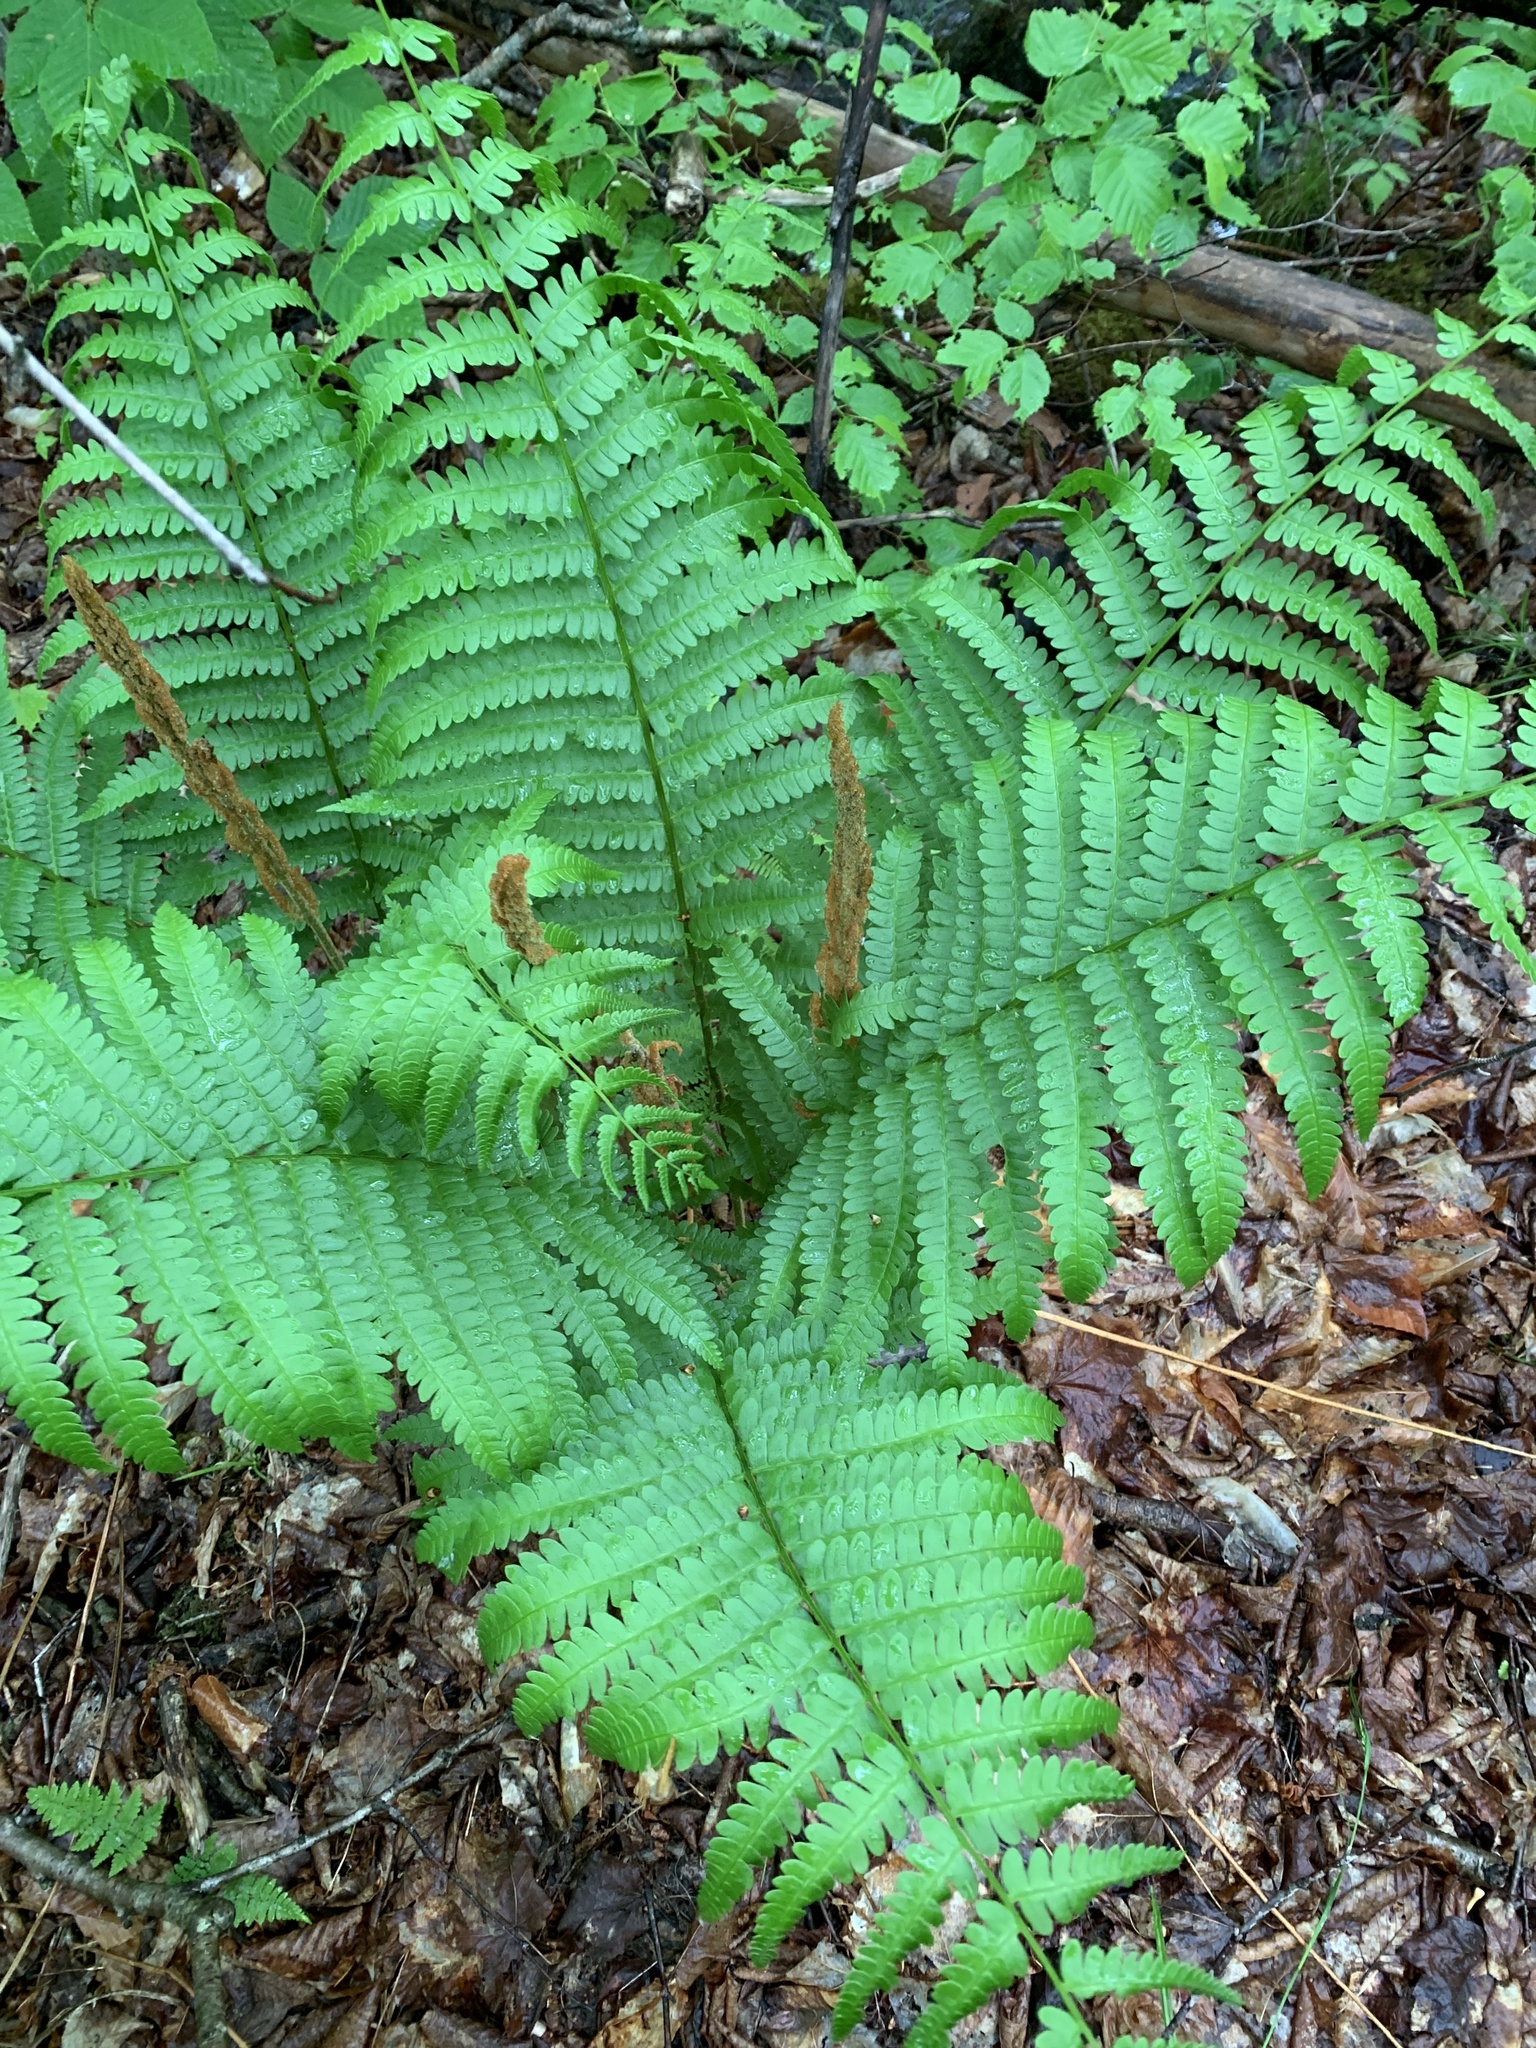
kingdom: Plantae
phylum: Tracheophyta
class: Polypodiopsida
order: Osmundales
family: Osmundaceae
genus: Osmundastrum
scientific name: Osmundastrum cinnamomeum
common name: Cinnamon fern
